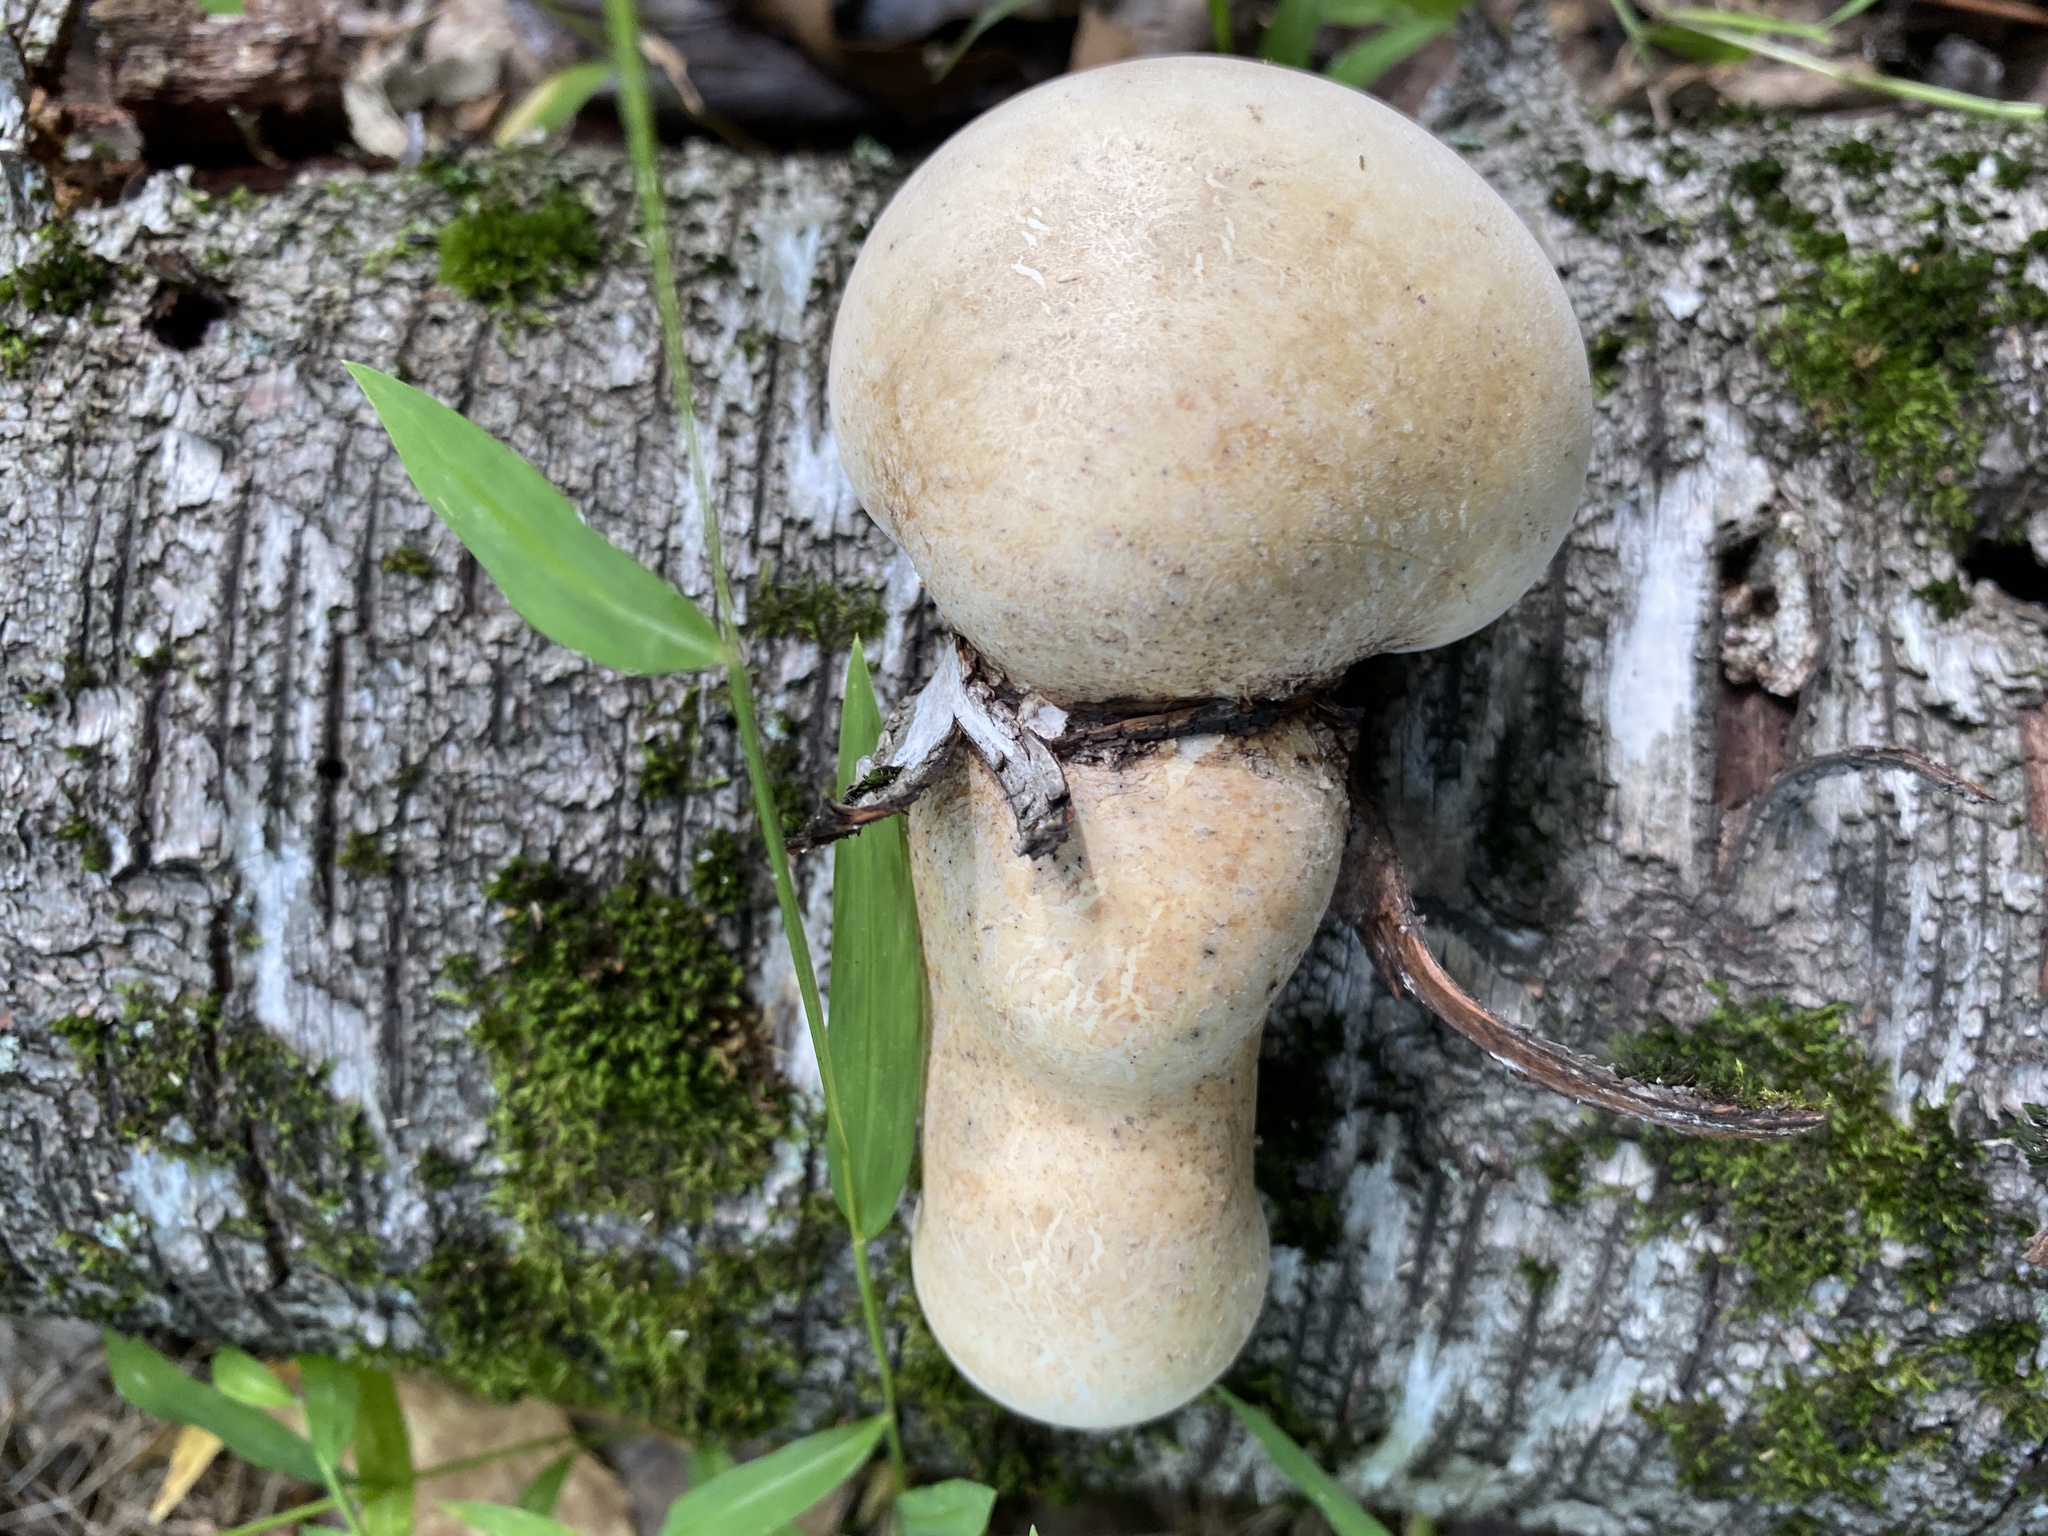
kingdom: Fungi
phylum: Basidiomycota
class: Agaricomycetes
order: Polyporales
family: Fomitopsidaceae
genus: Fomitopsis
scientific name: Fomitopsis betulina
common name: Birch polypore
